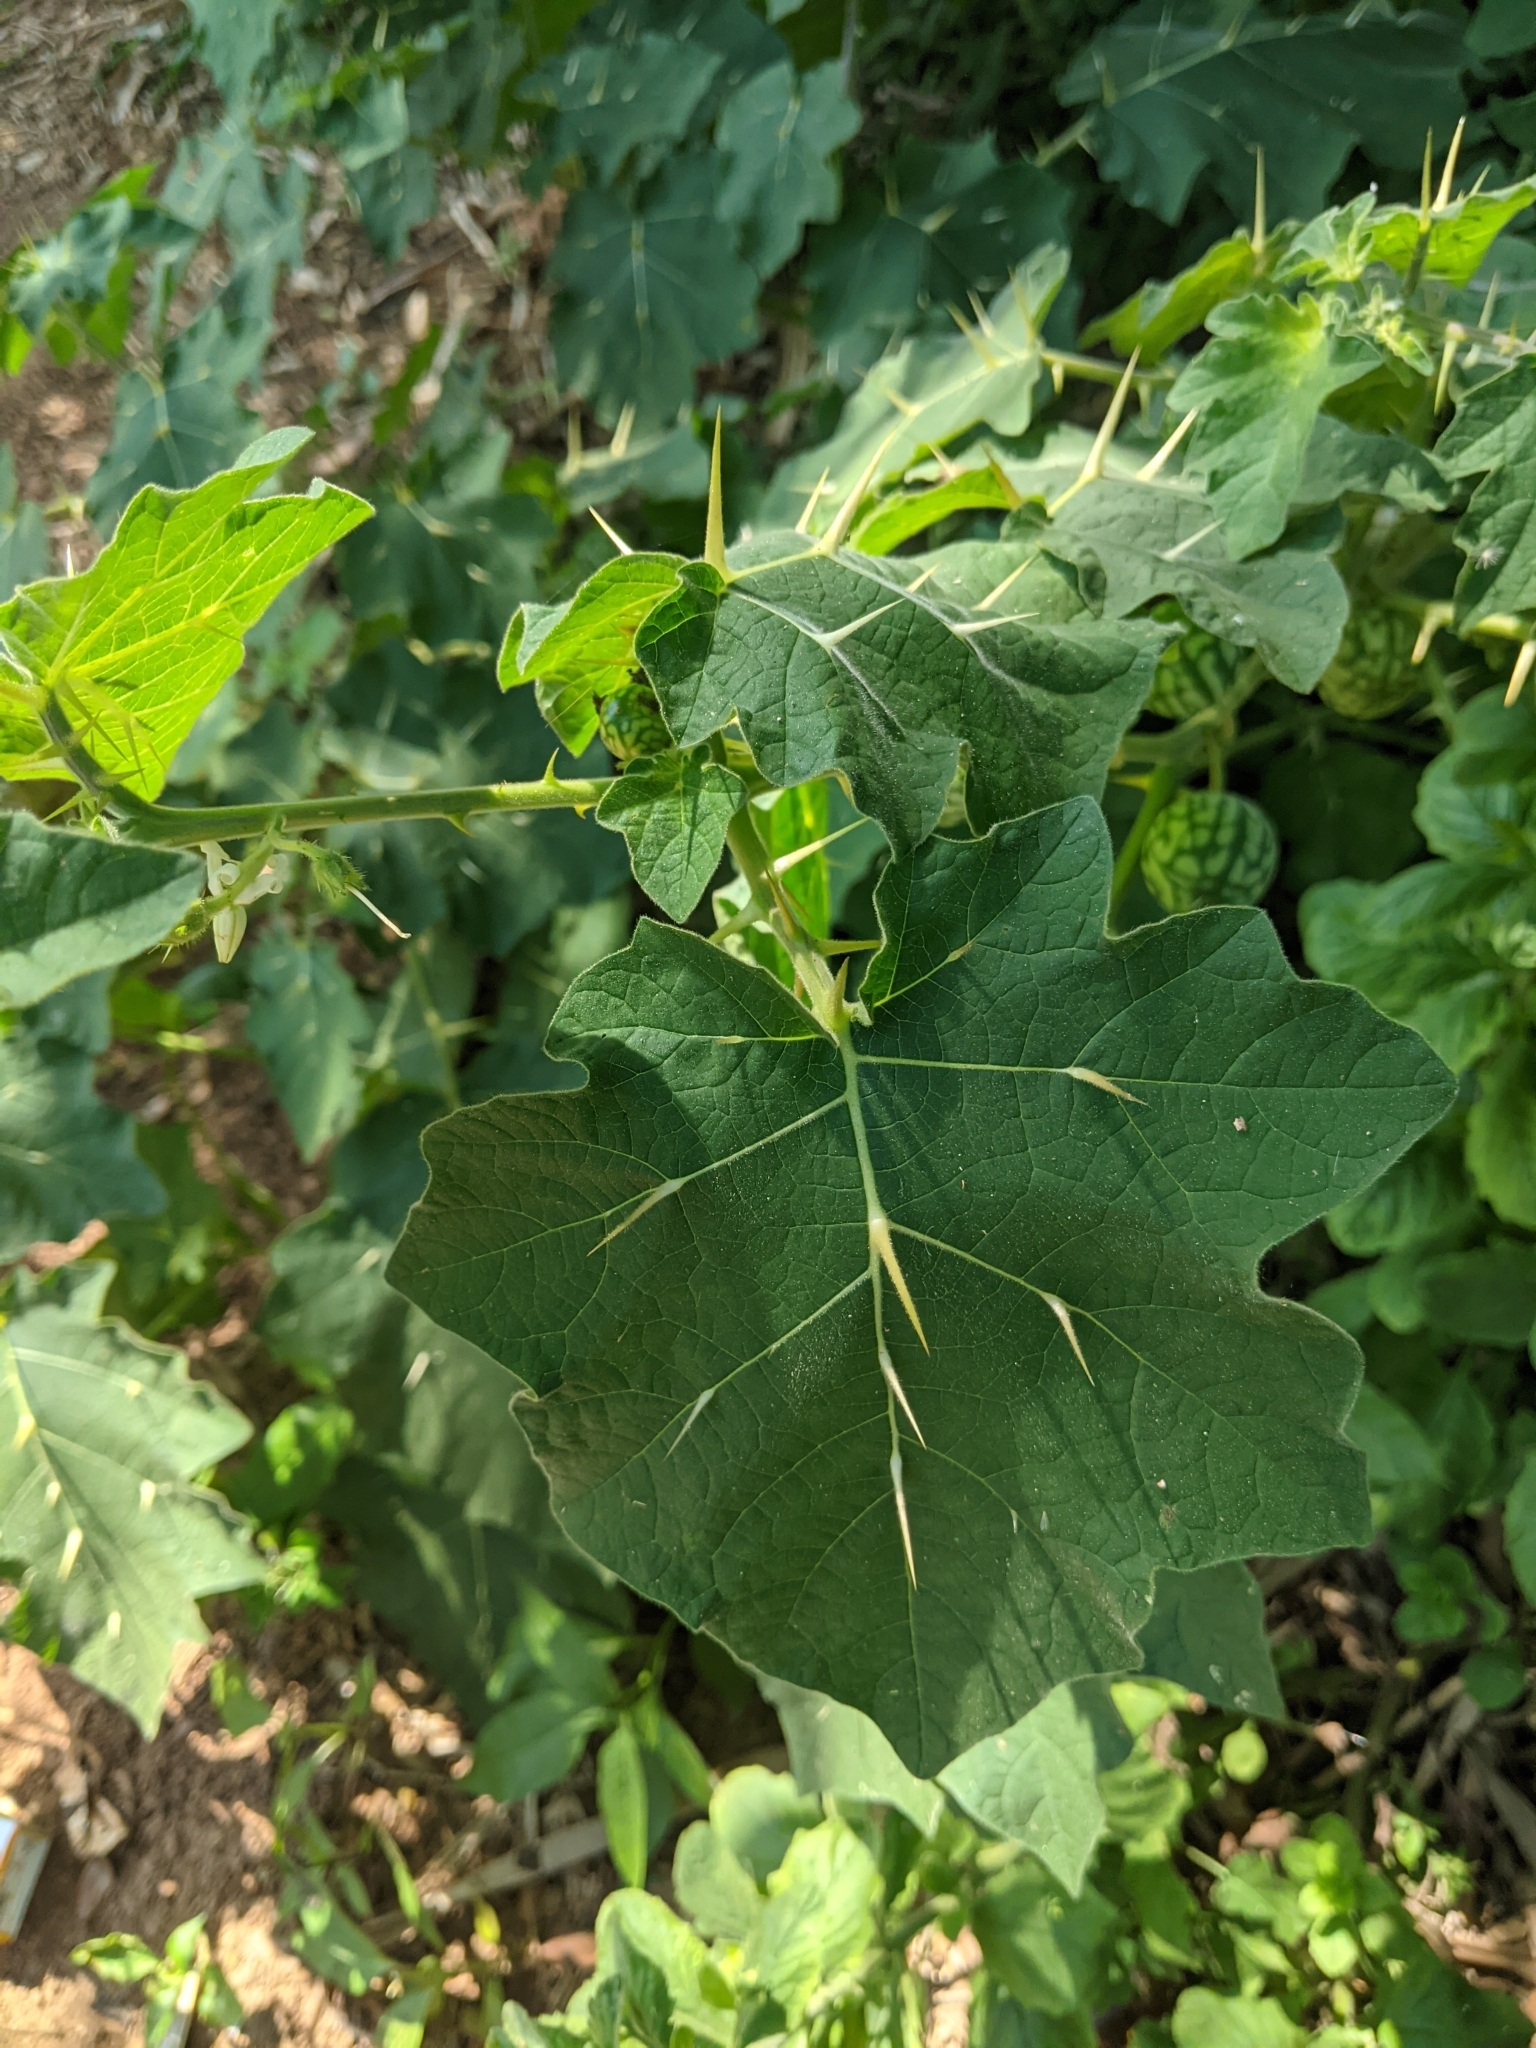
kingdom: Plantae
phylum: Tracheophyta
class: Magnoliopsida
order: Solanales
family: Solanaceae
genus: Solanum
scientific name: Solanum viarum
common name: Tropical soda apple
